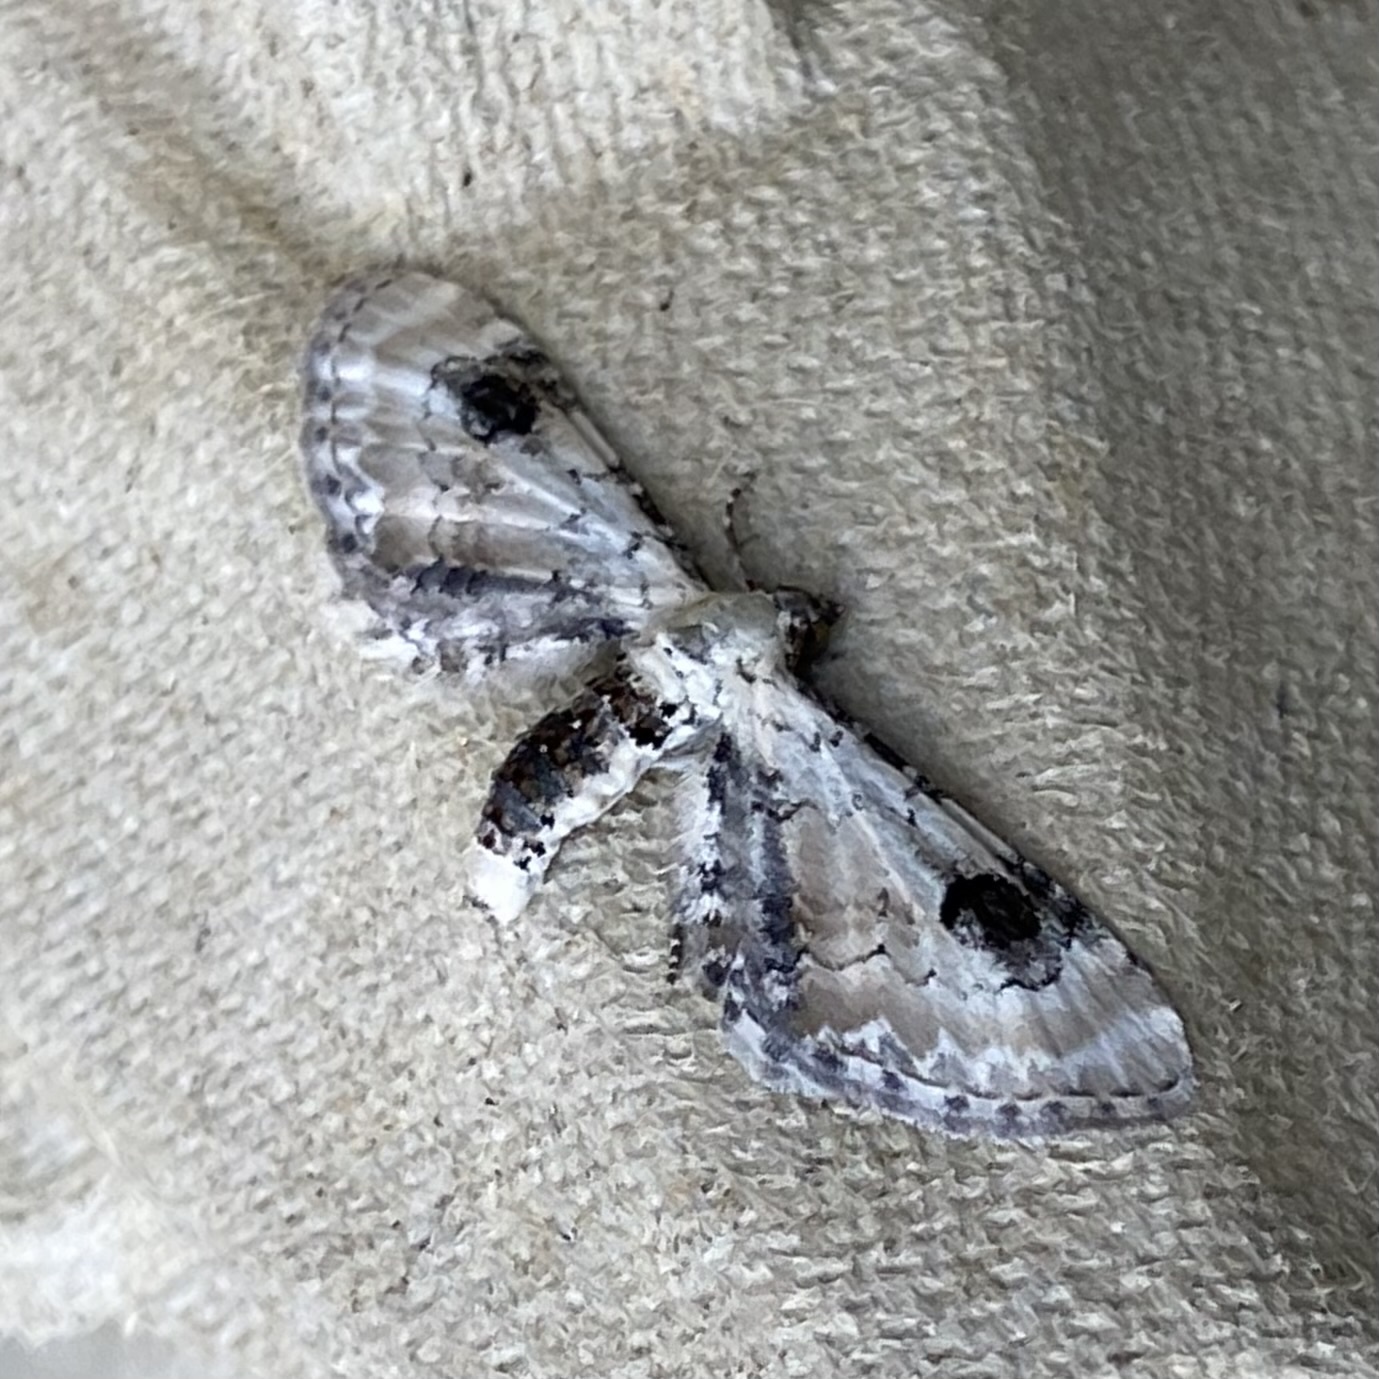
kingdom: Animalia
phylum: Arthropoda
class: Insecta
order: Lepidoptera
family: Geometridae
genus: Eupithecia
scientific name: Eupithecia centaureata
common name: Lime-speck pug
